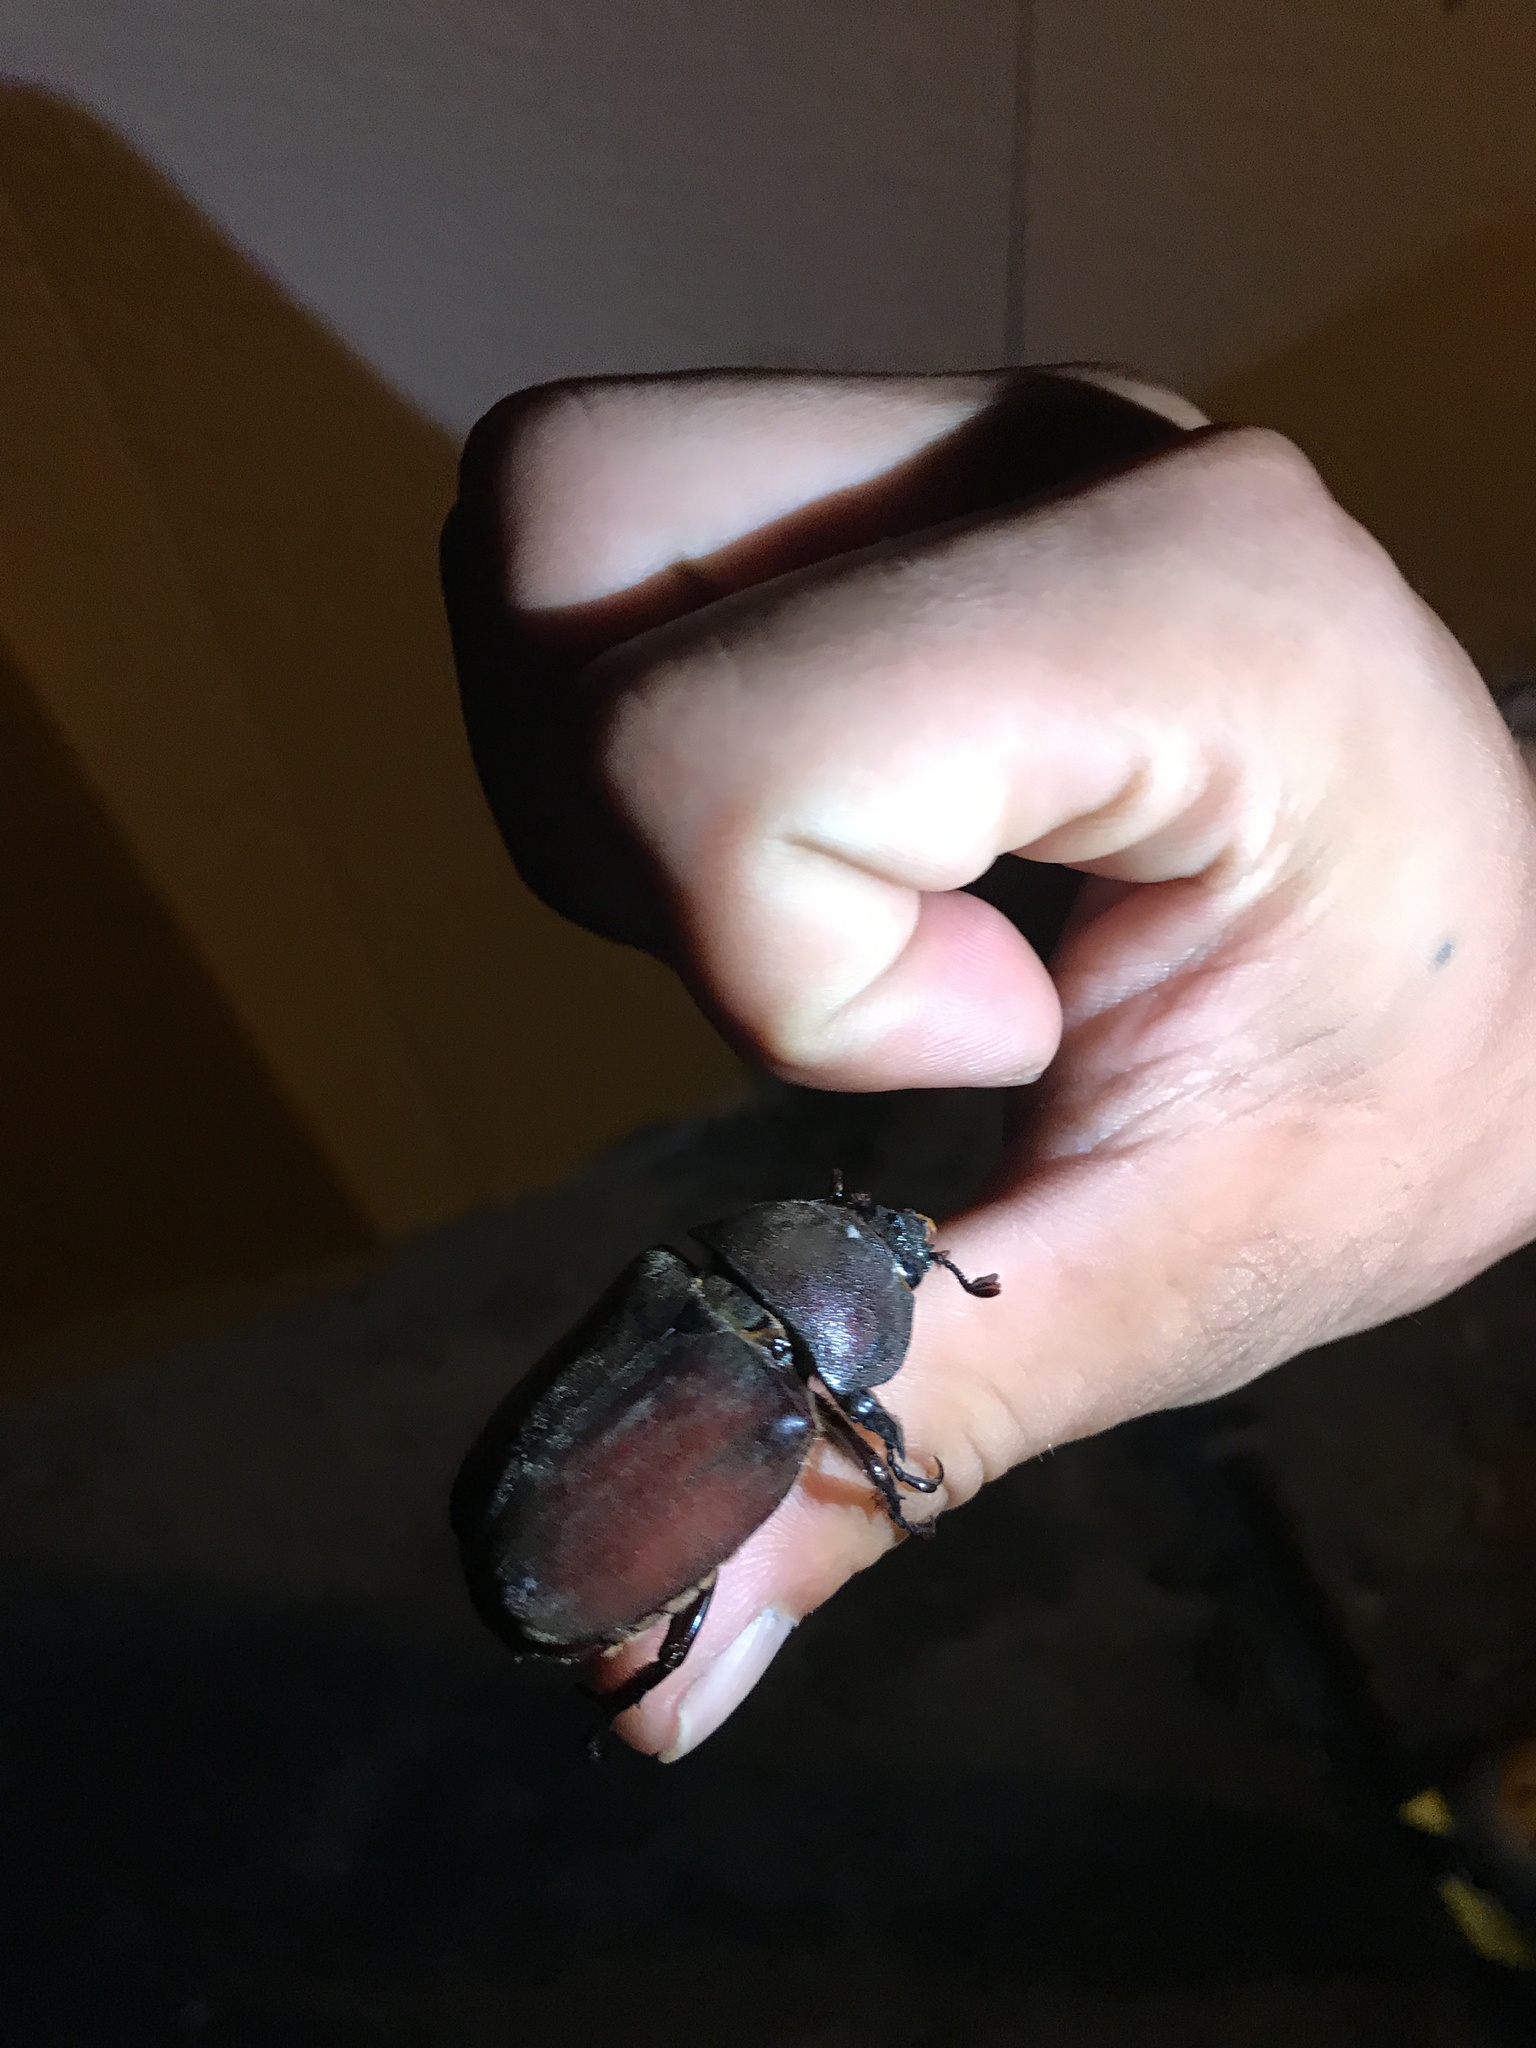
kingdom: Animalia
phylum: Arthropoda
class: Insecta
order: Coleoptera
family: Scarabaeidae
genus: Trypoxylus
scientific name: Trypoxylus dichotomus
